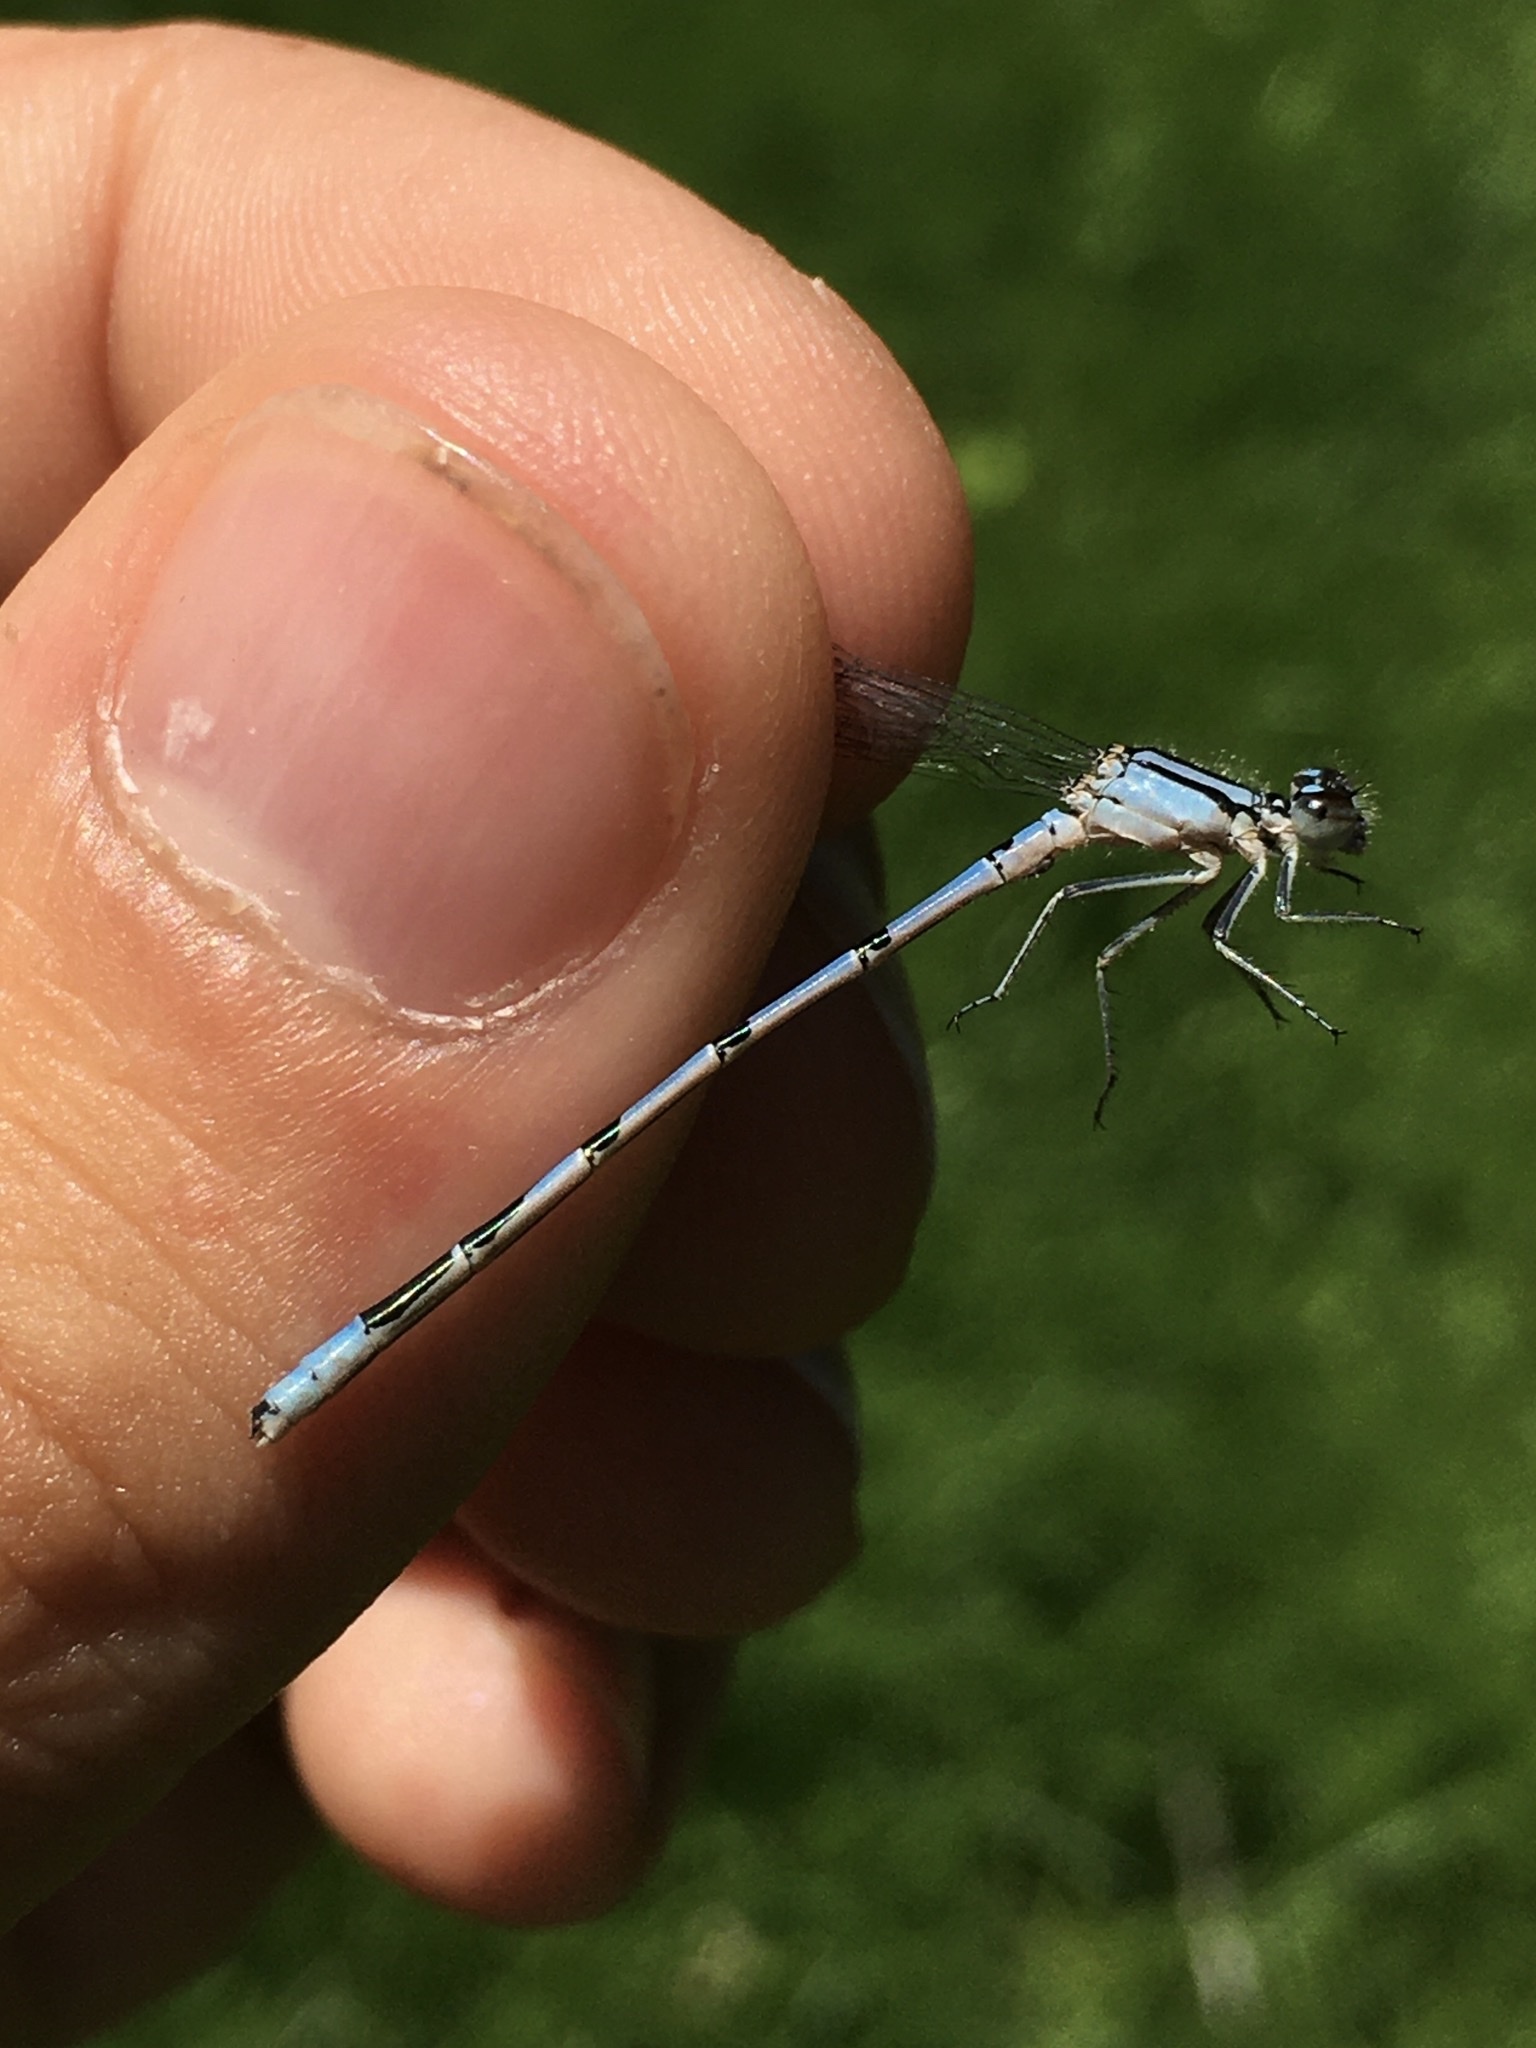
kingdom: Animalia
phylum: Arthropoda
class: Insecta
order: Odonata
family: Coenagrionidae
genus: Enallagma
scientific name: Enallagma hageni
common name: Hagen's bluet
